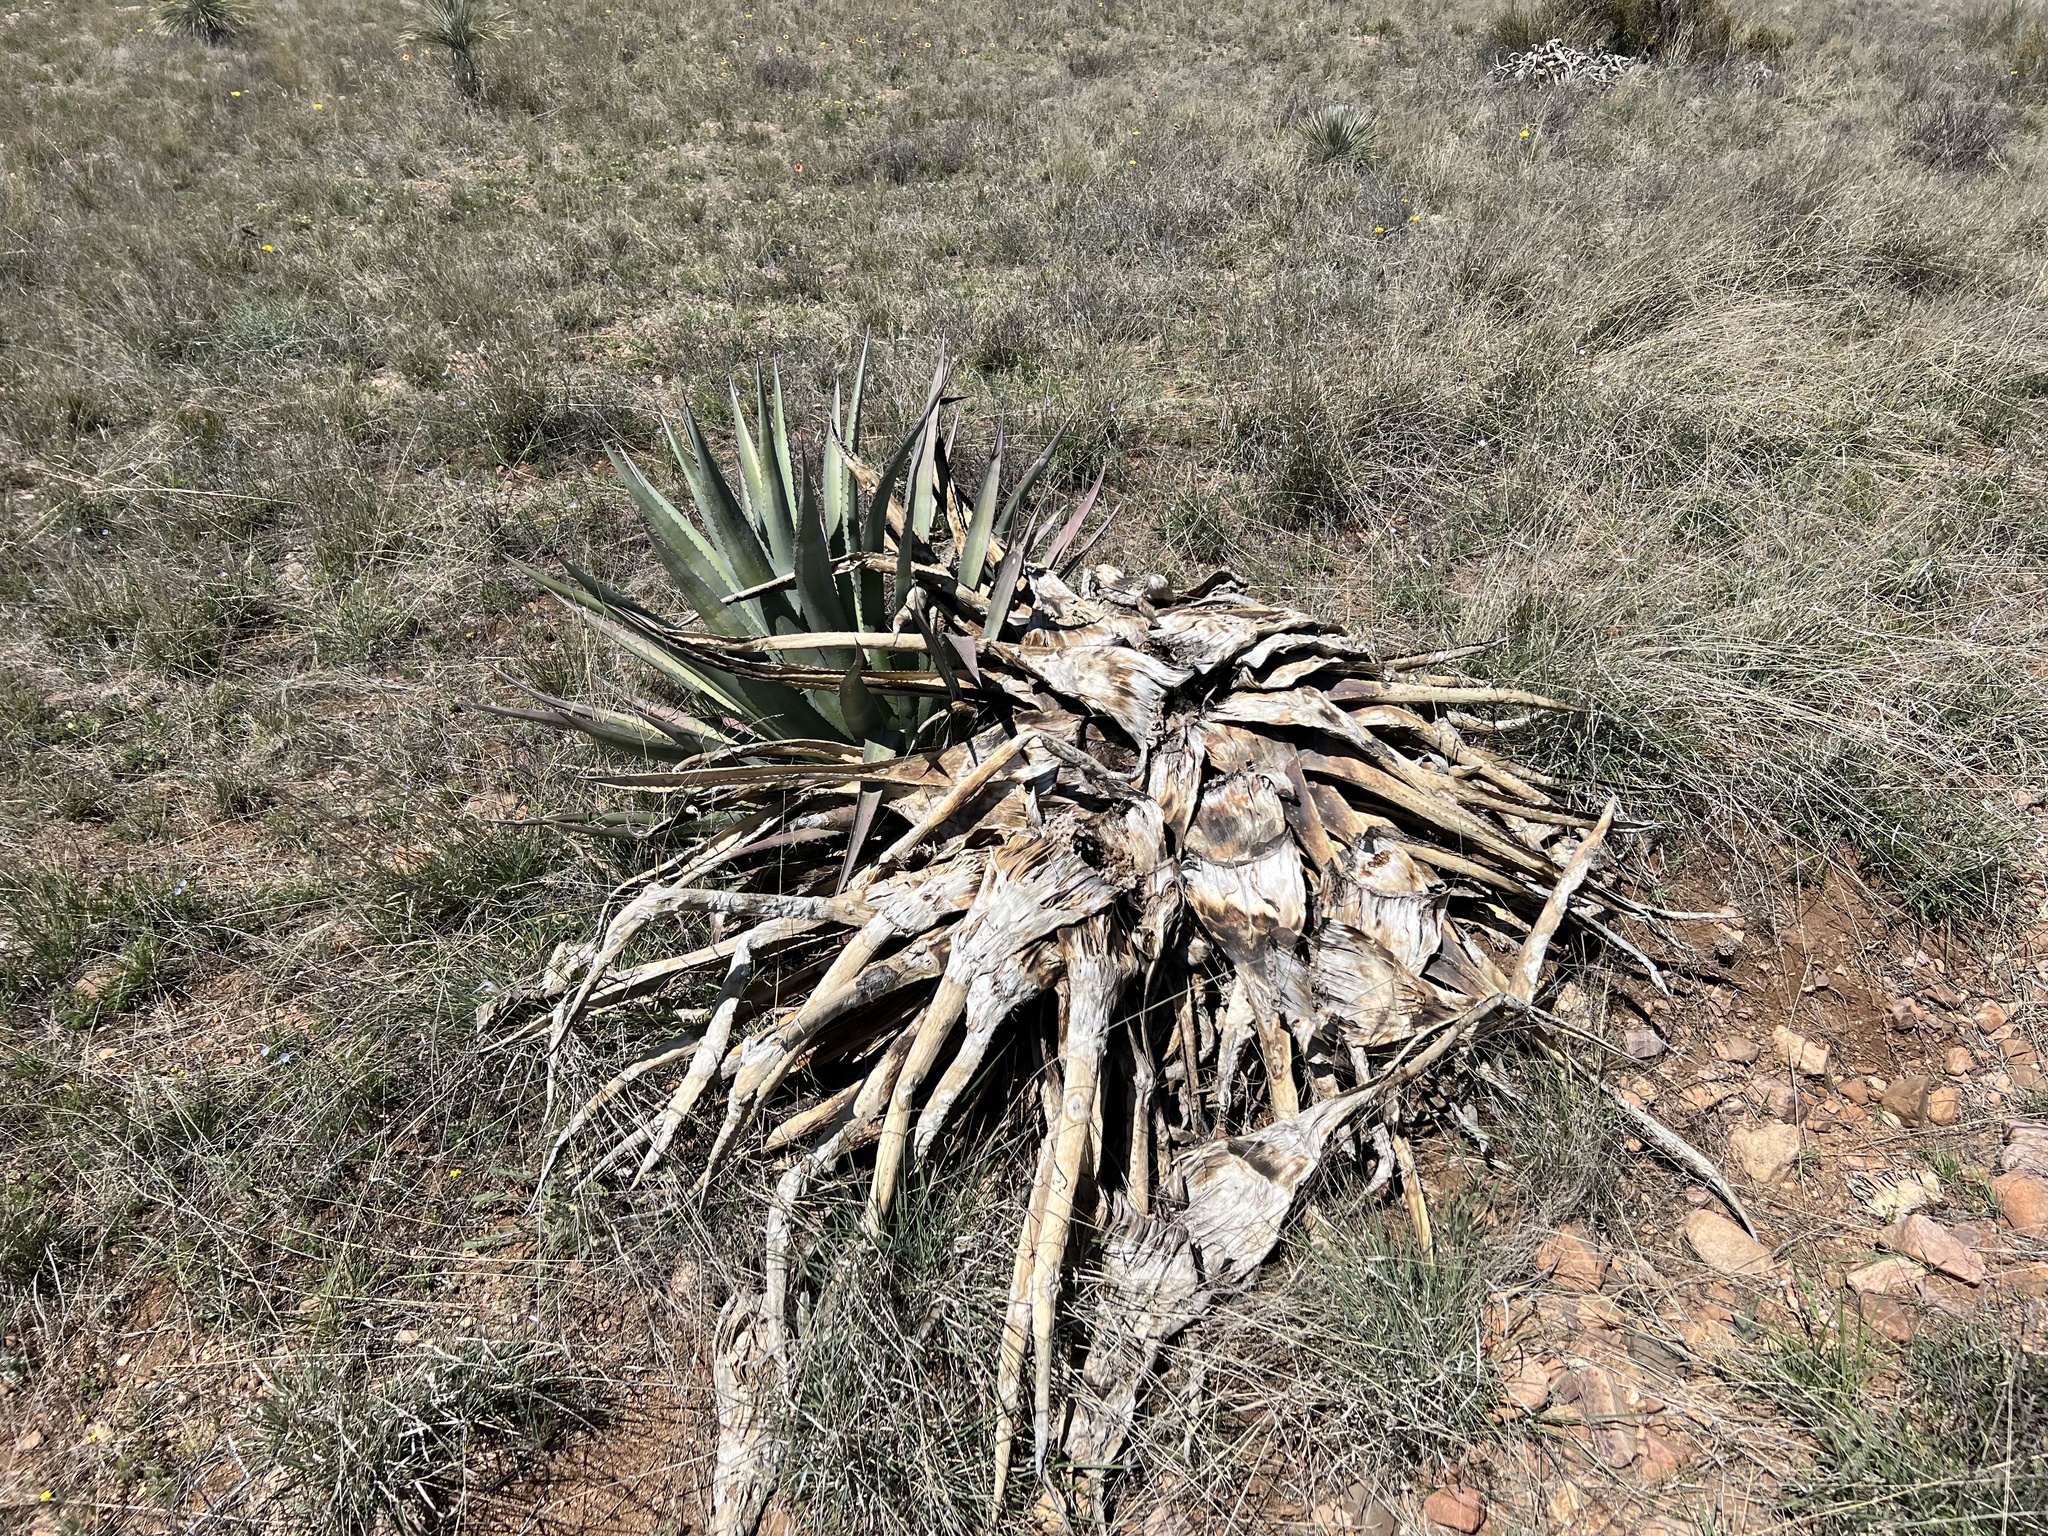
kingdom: Plantae
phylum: Tracheophyta
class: Liliopsida
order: Asparagales
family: Asparagaceae
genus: Agave
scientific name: Agave palmeri
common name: Palmer agave
